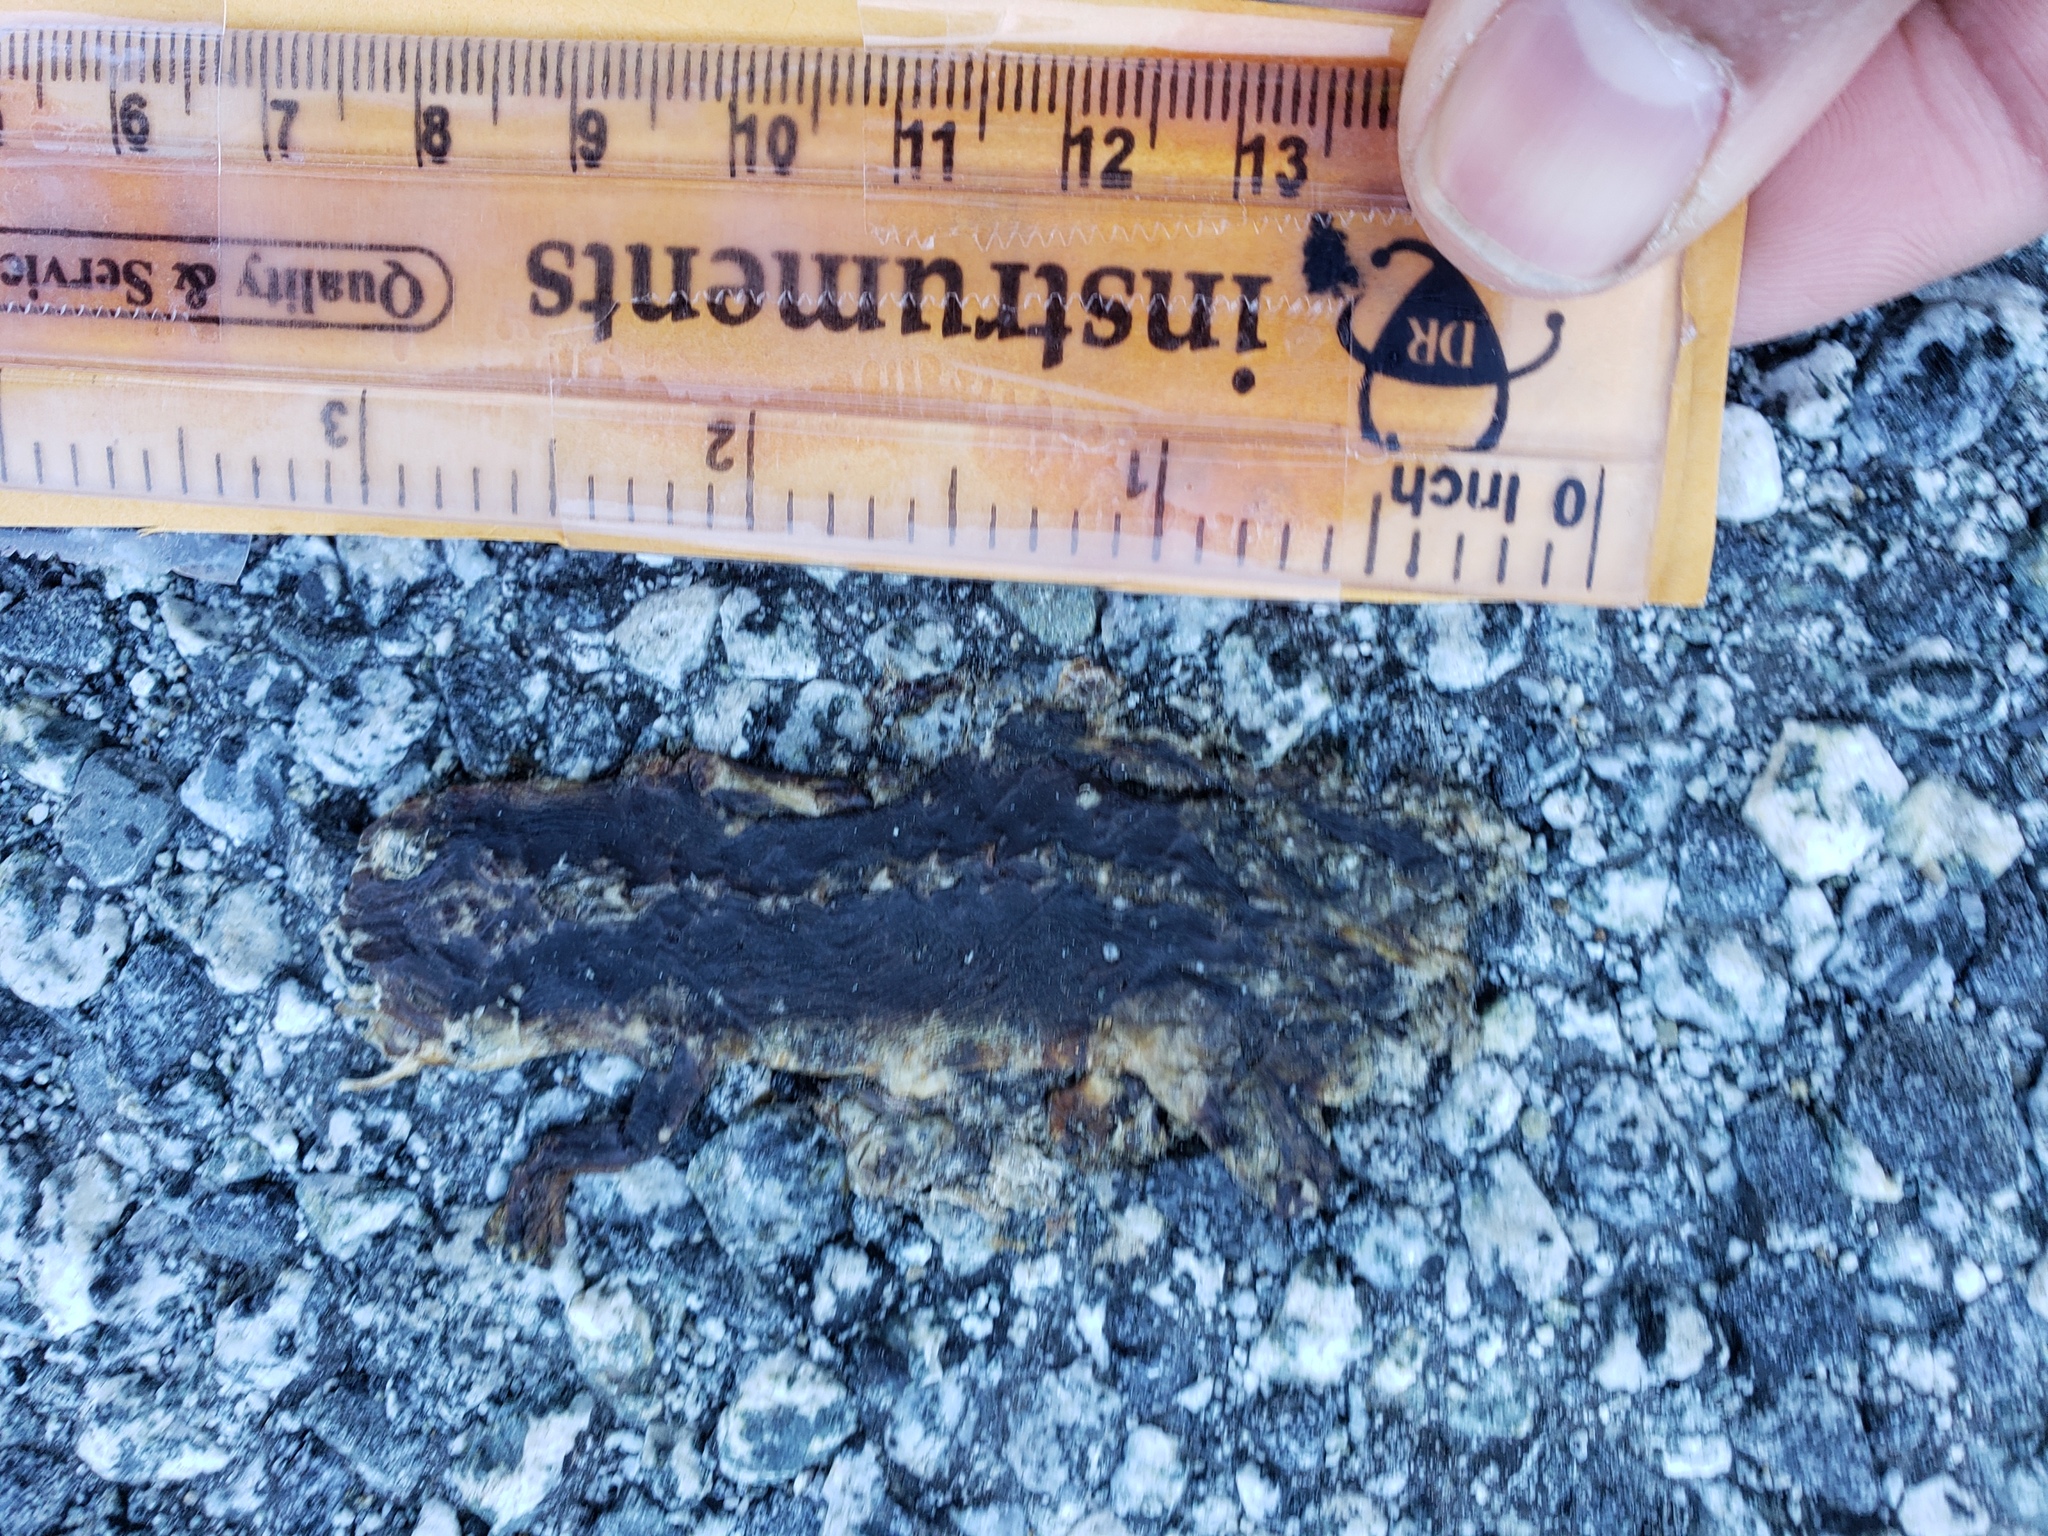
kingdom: Animalia
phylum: Chordata
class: Amphibia
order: Caudata
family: Salamandridae
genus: Taricha
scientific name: Taricha
